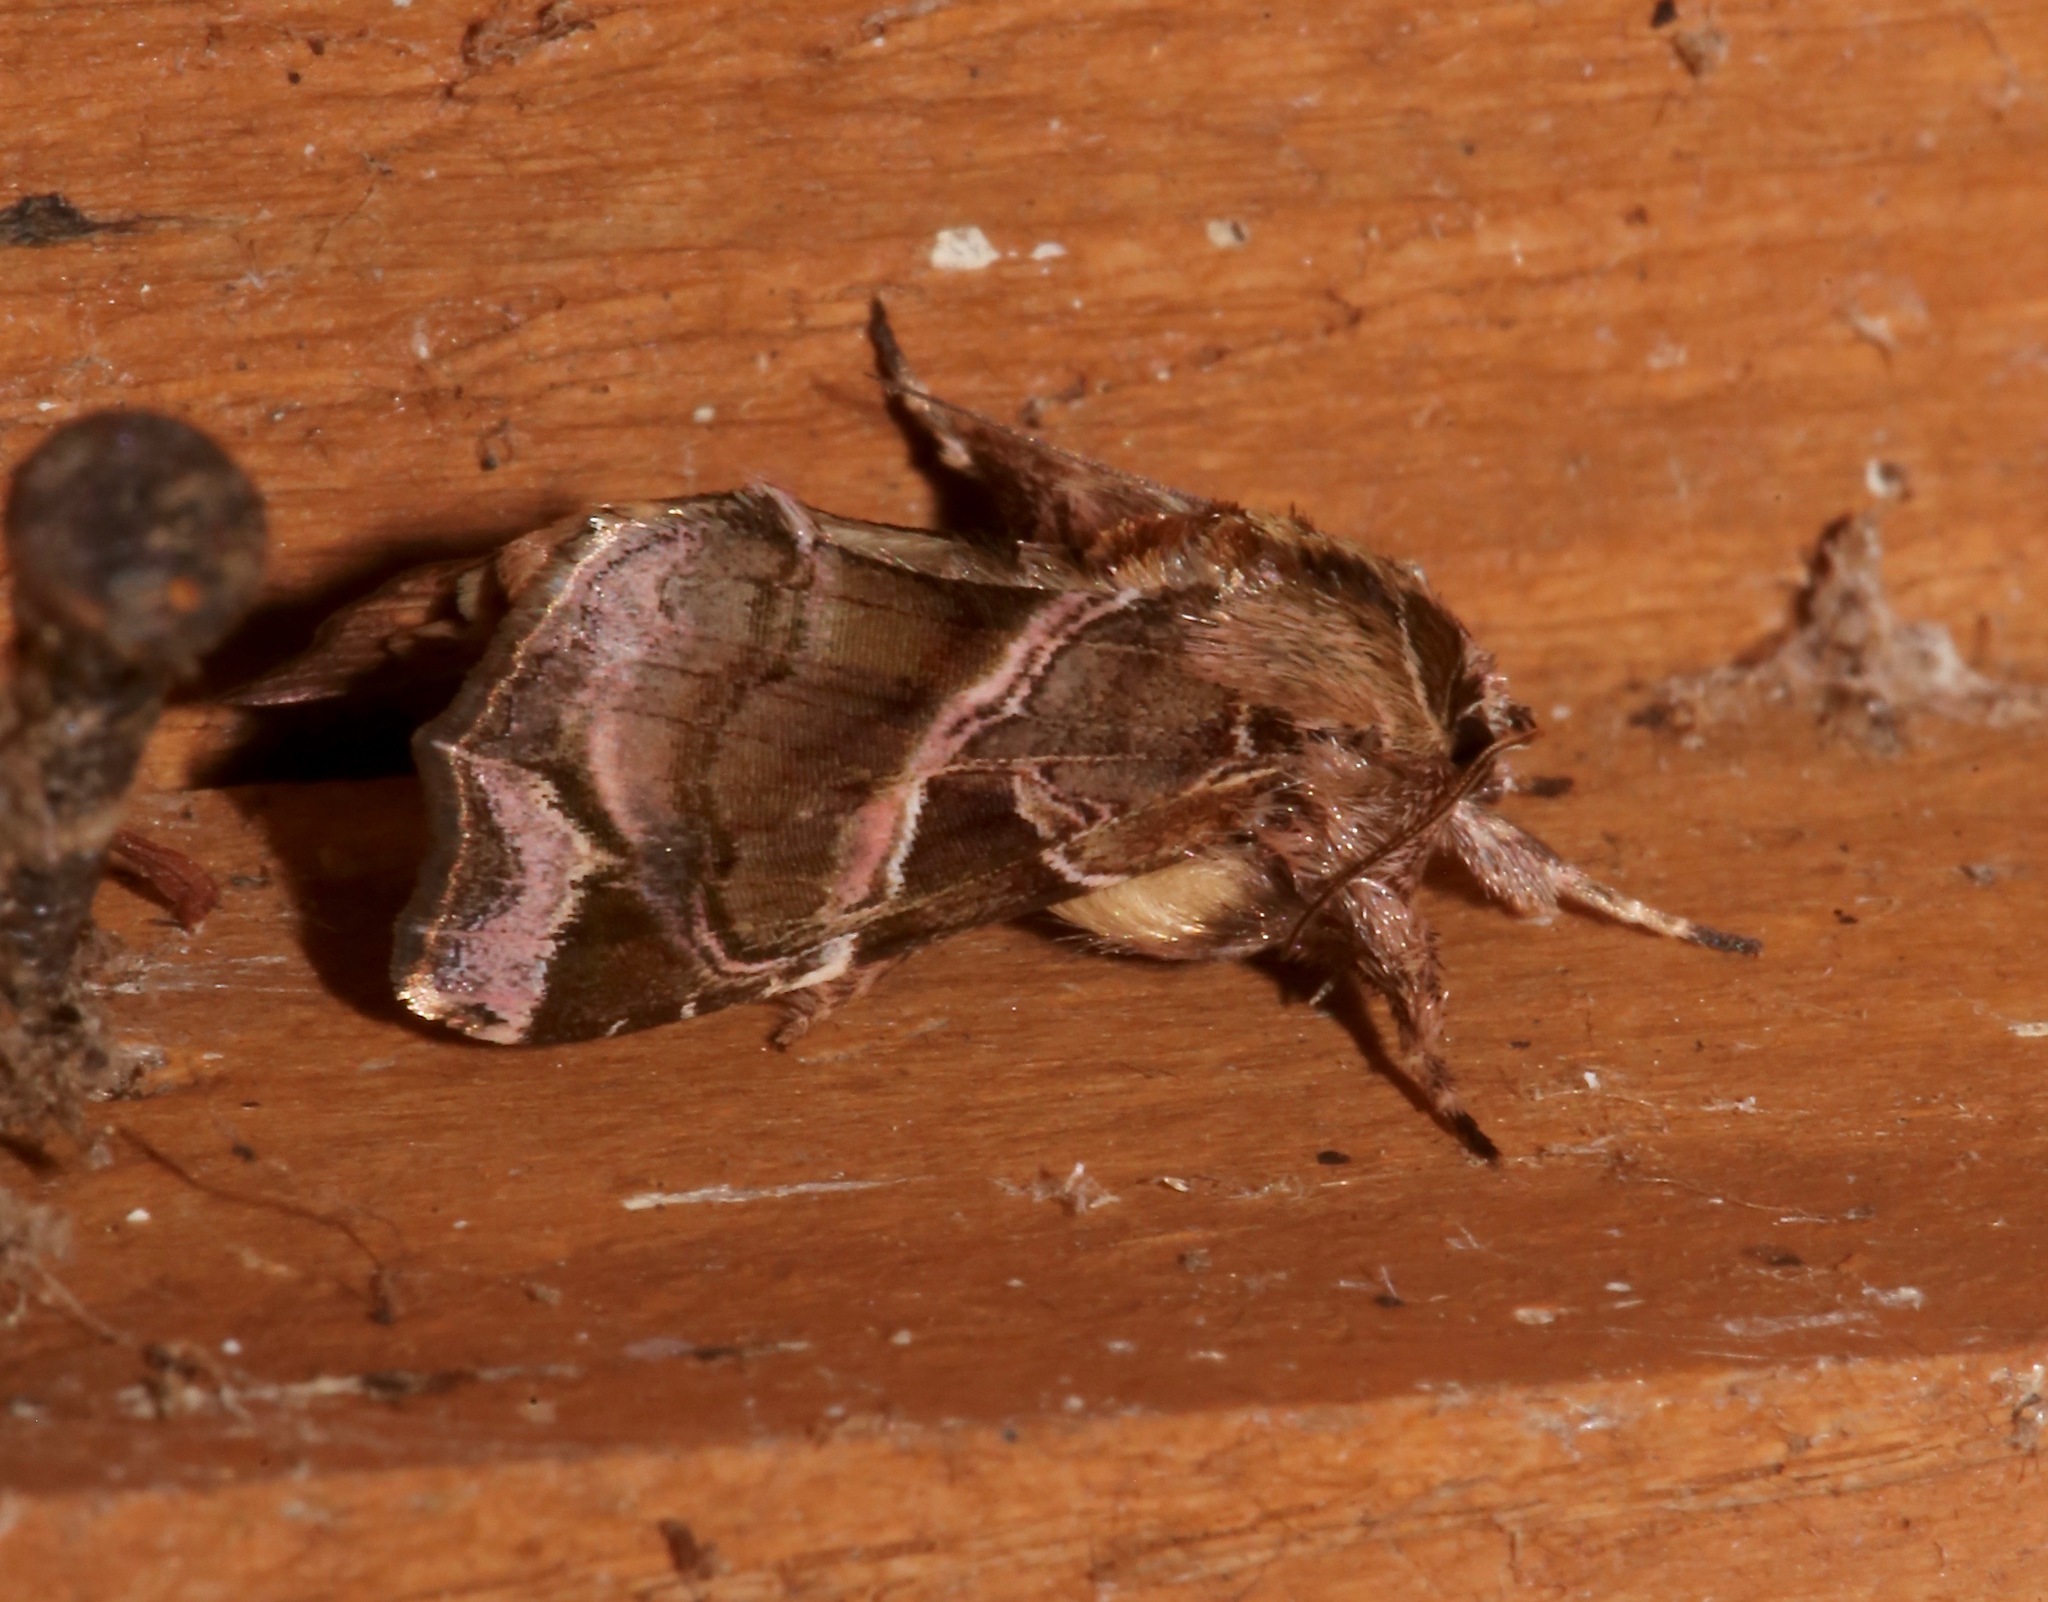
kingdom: Animalia
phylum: Arthropoda
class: Insecta
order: Lepidoptera
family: Noctuidae
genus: Callopistria
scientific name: Callopistria floridensis
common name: Florida fern moth
